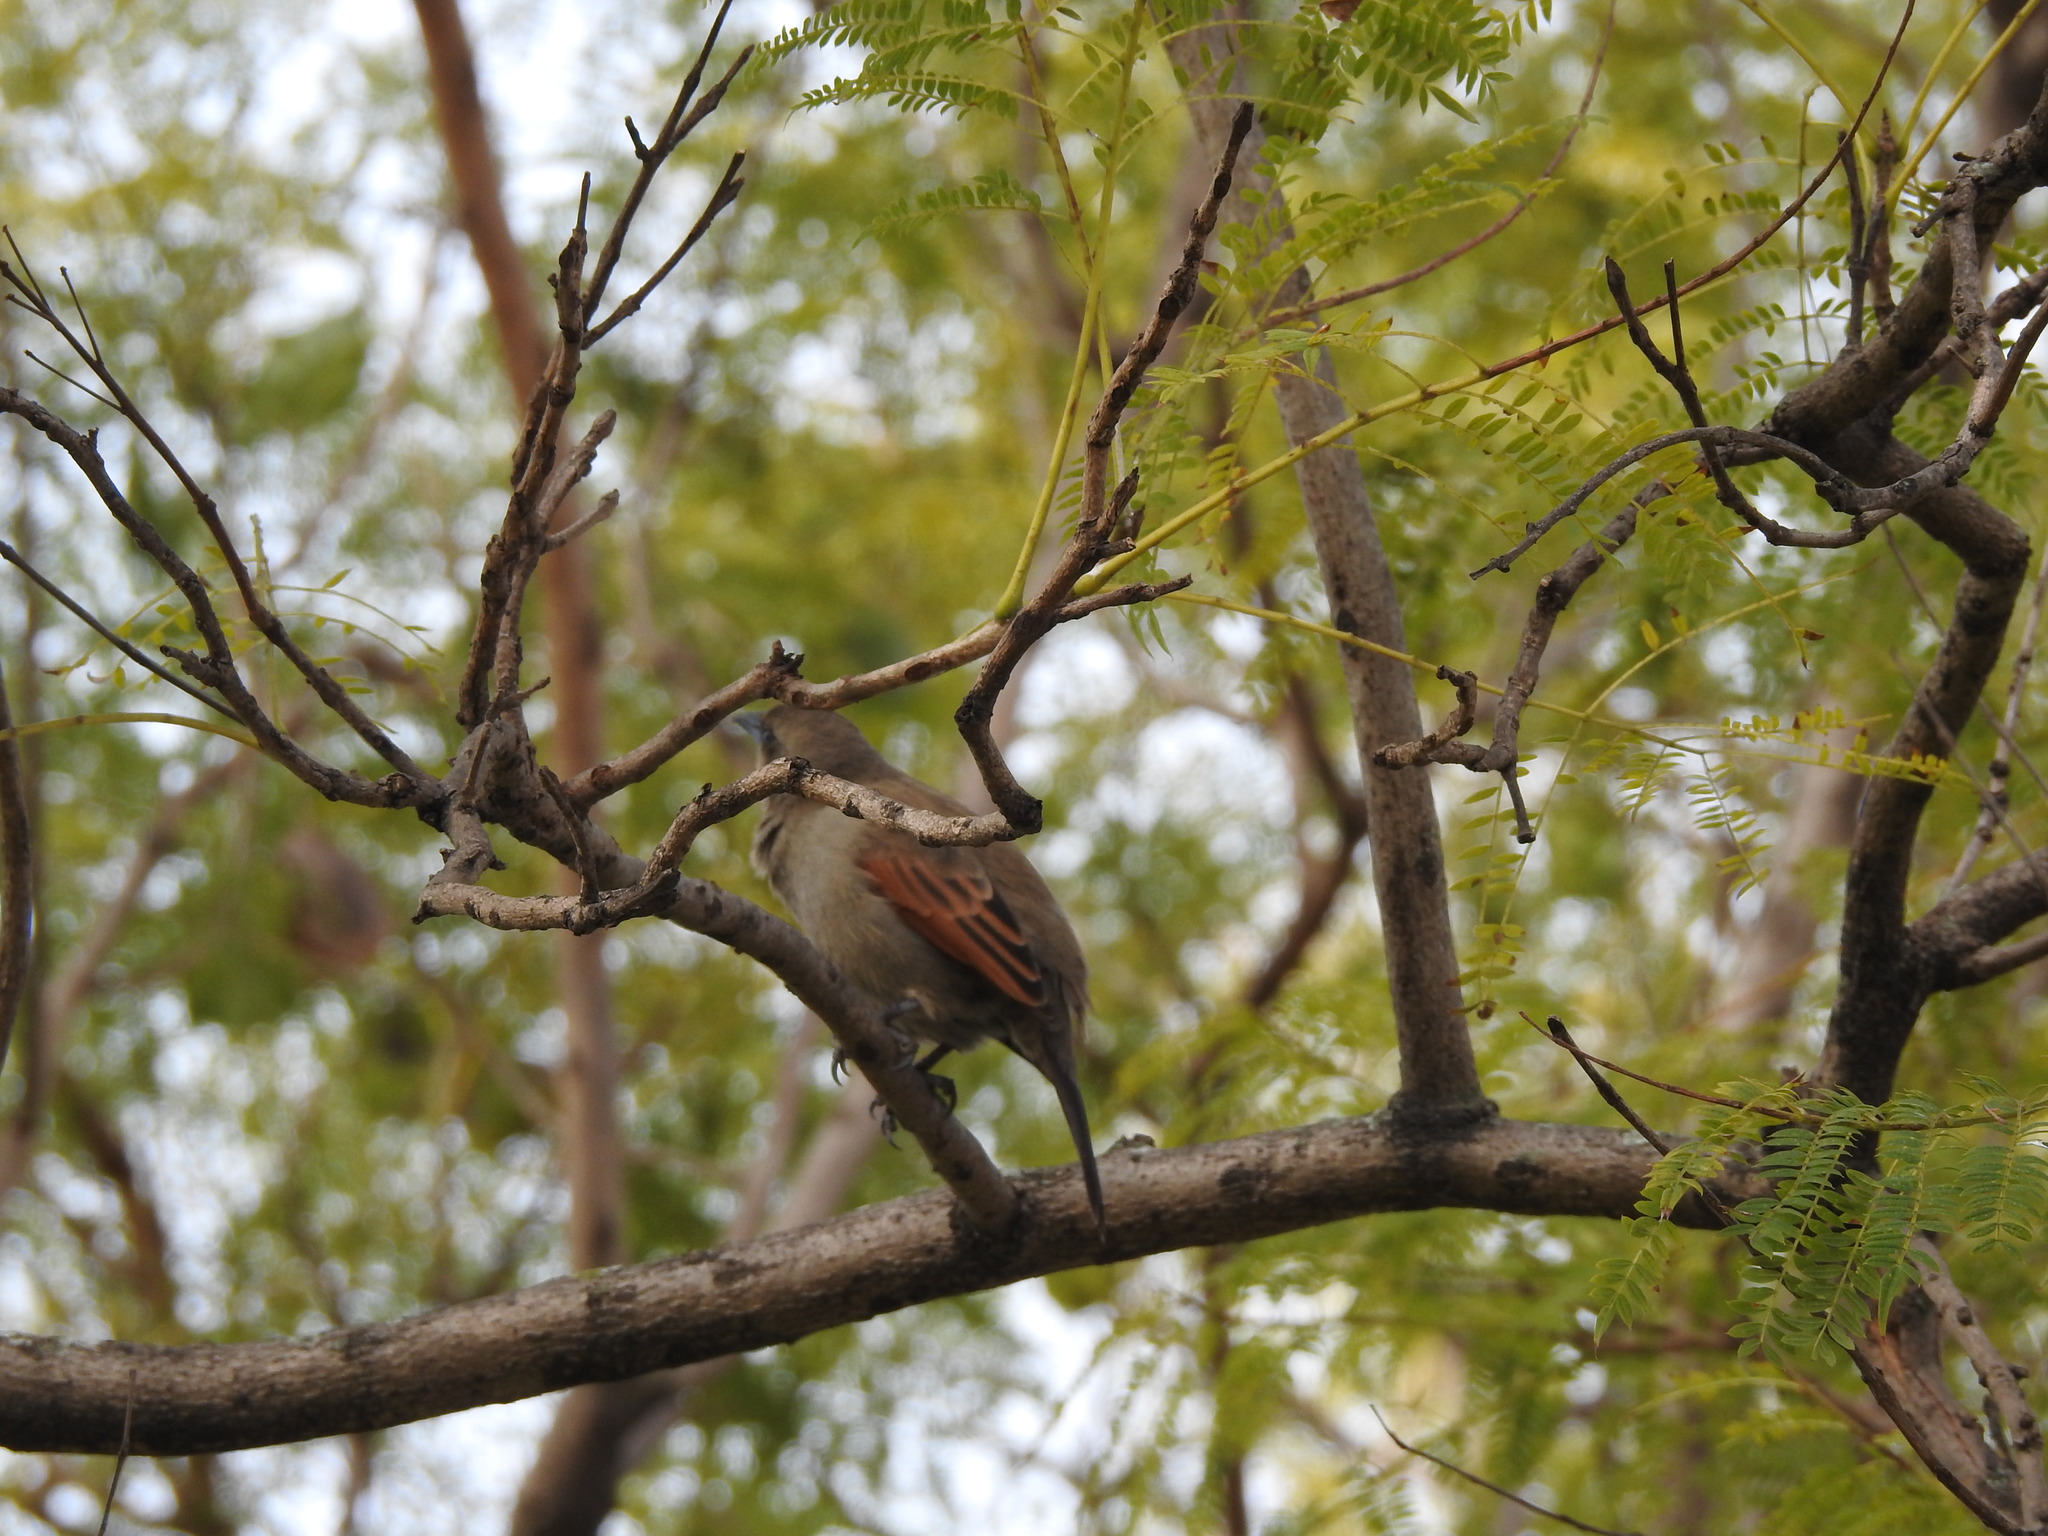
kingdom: Animalia
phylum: Chordata
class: Aves
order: Passeriformes
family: Icteridae
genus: Agelaioides
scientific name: Agelaioides badius
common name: Baywing
